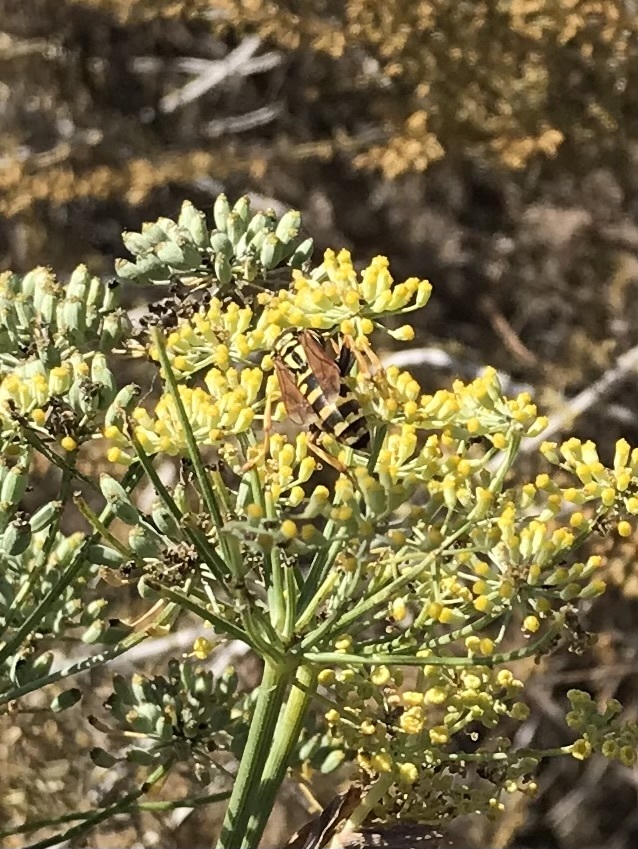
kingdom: Animalia
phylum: Arthropoda
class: Insecta
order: Hymenoptera
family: Eumenidae
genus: Polistes
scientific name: Polistes dominula
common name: Paper wasp
